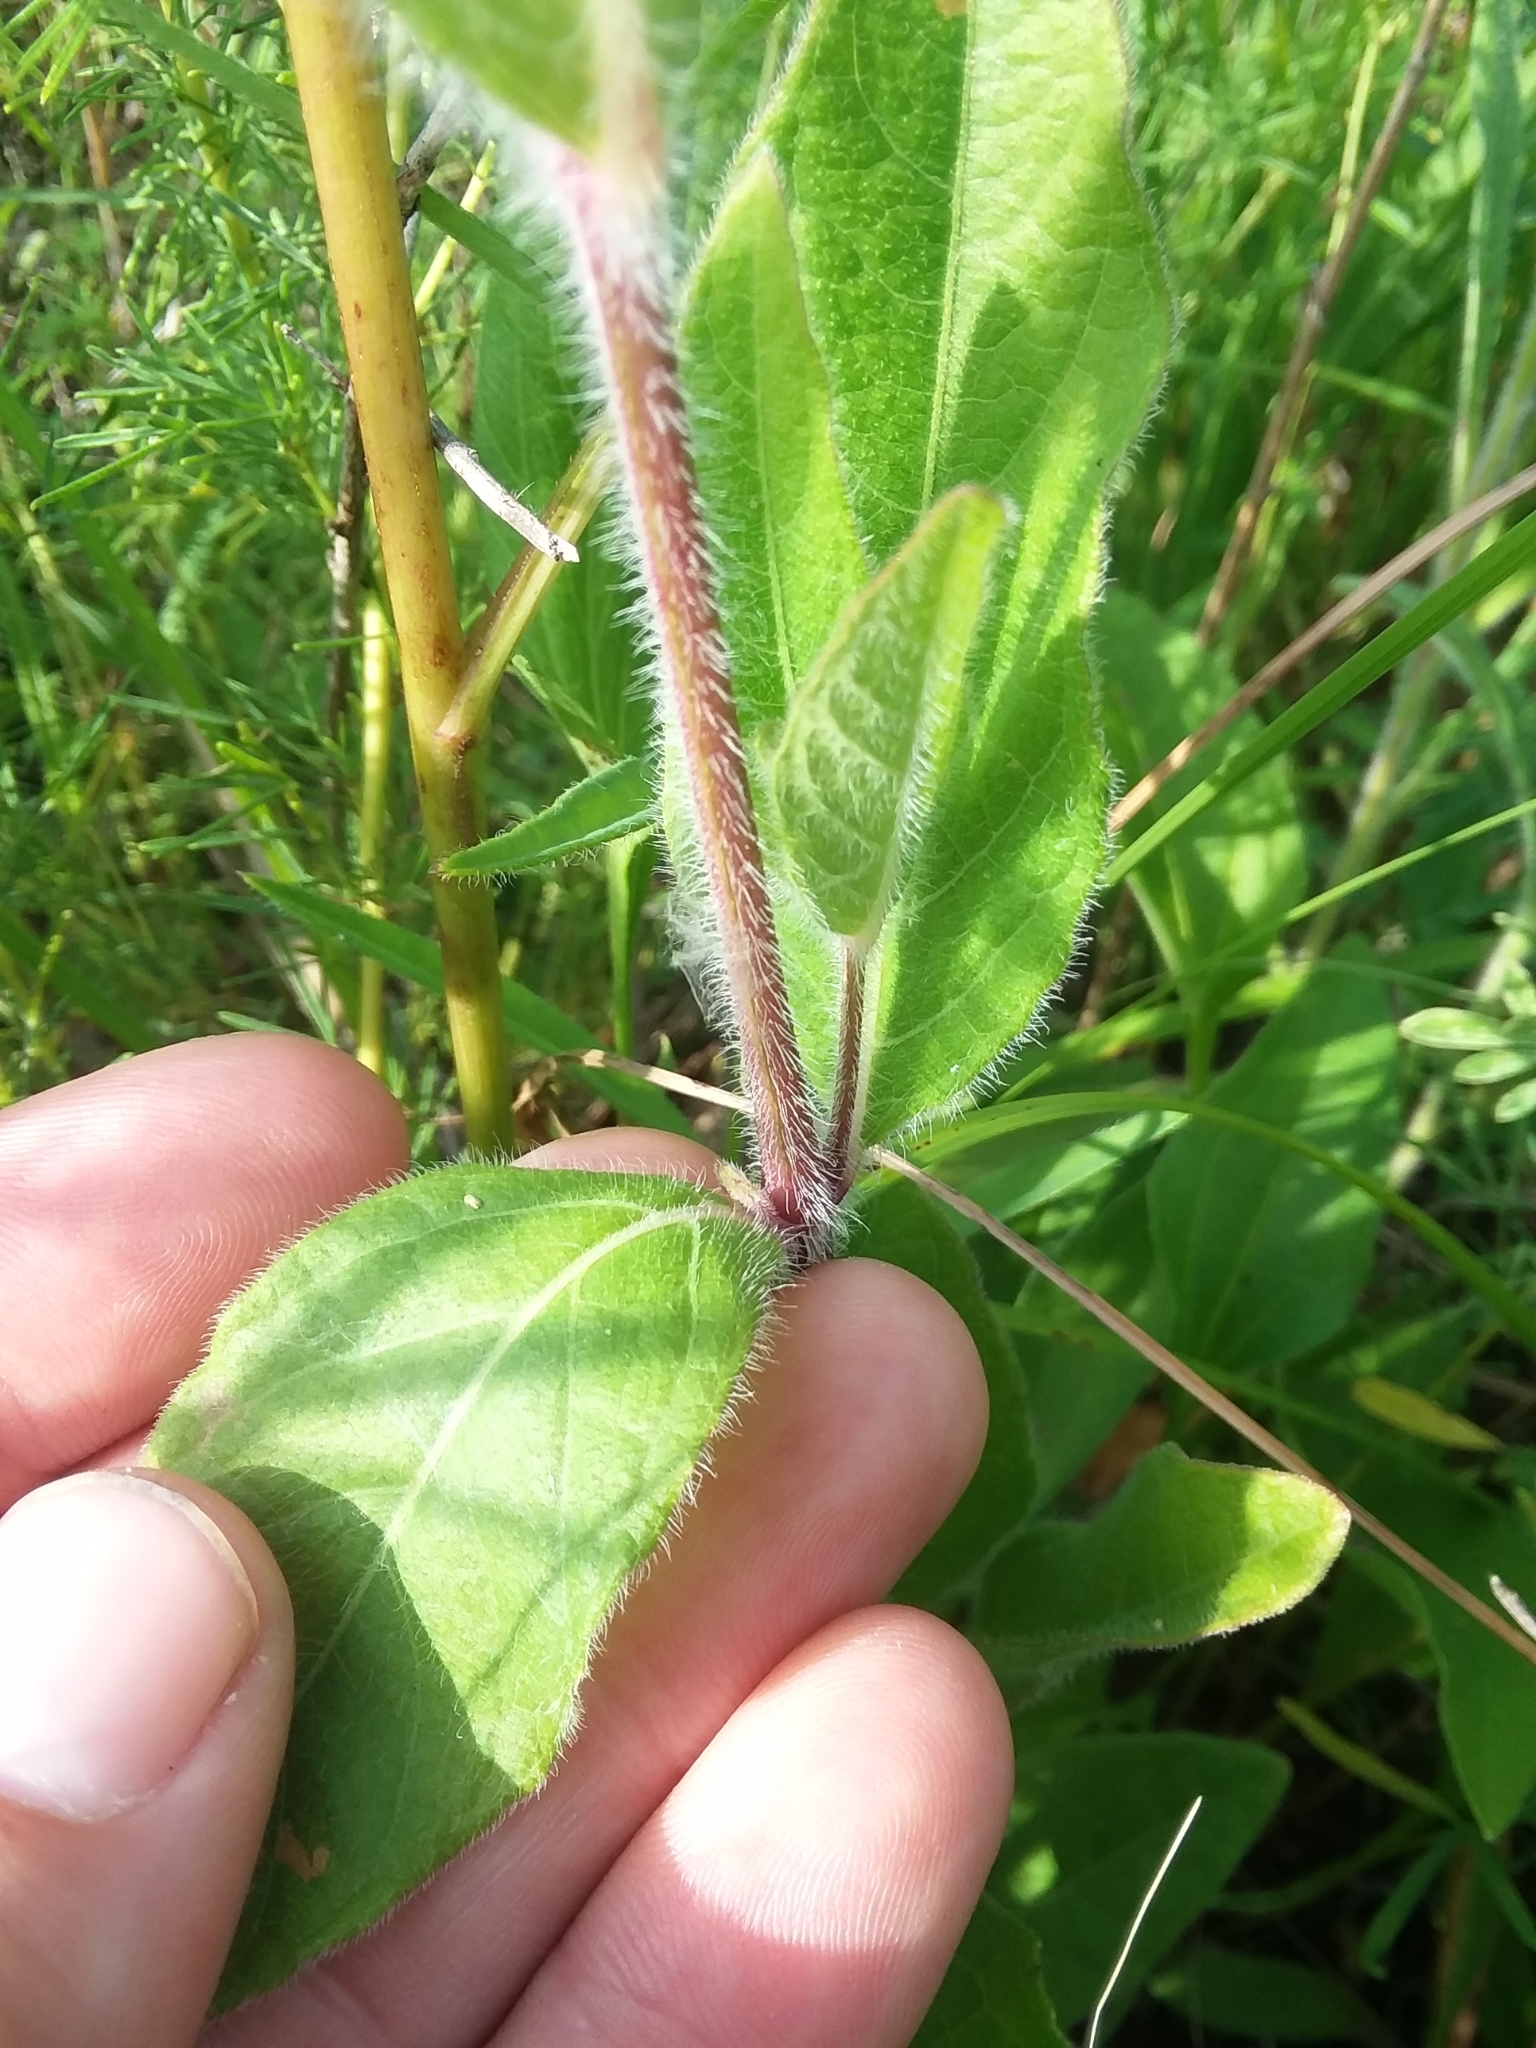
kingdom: Plantae
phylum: Tracheophyta
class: Magnoliopsida
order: Lamiales
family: Acanthaceae
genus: Ruellia
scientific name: Ruellia humilis
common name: Fringe-leaf ruellia
